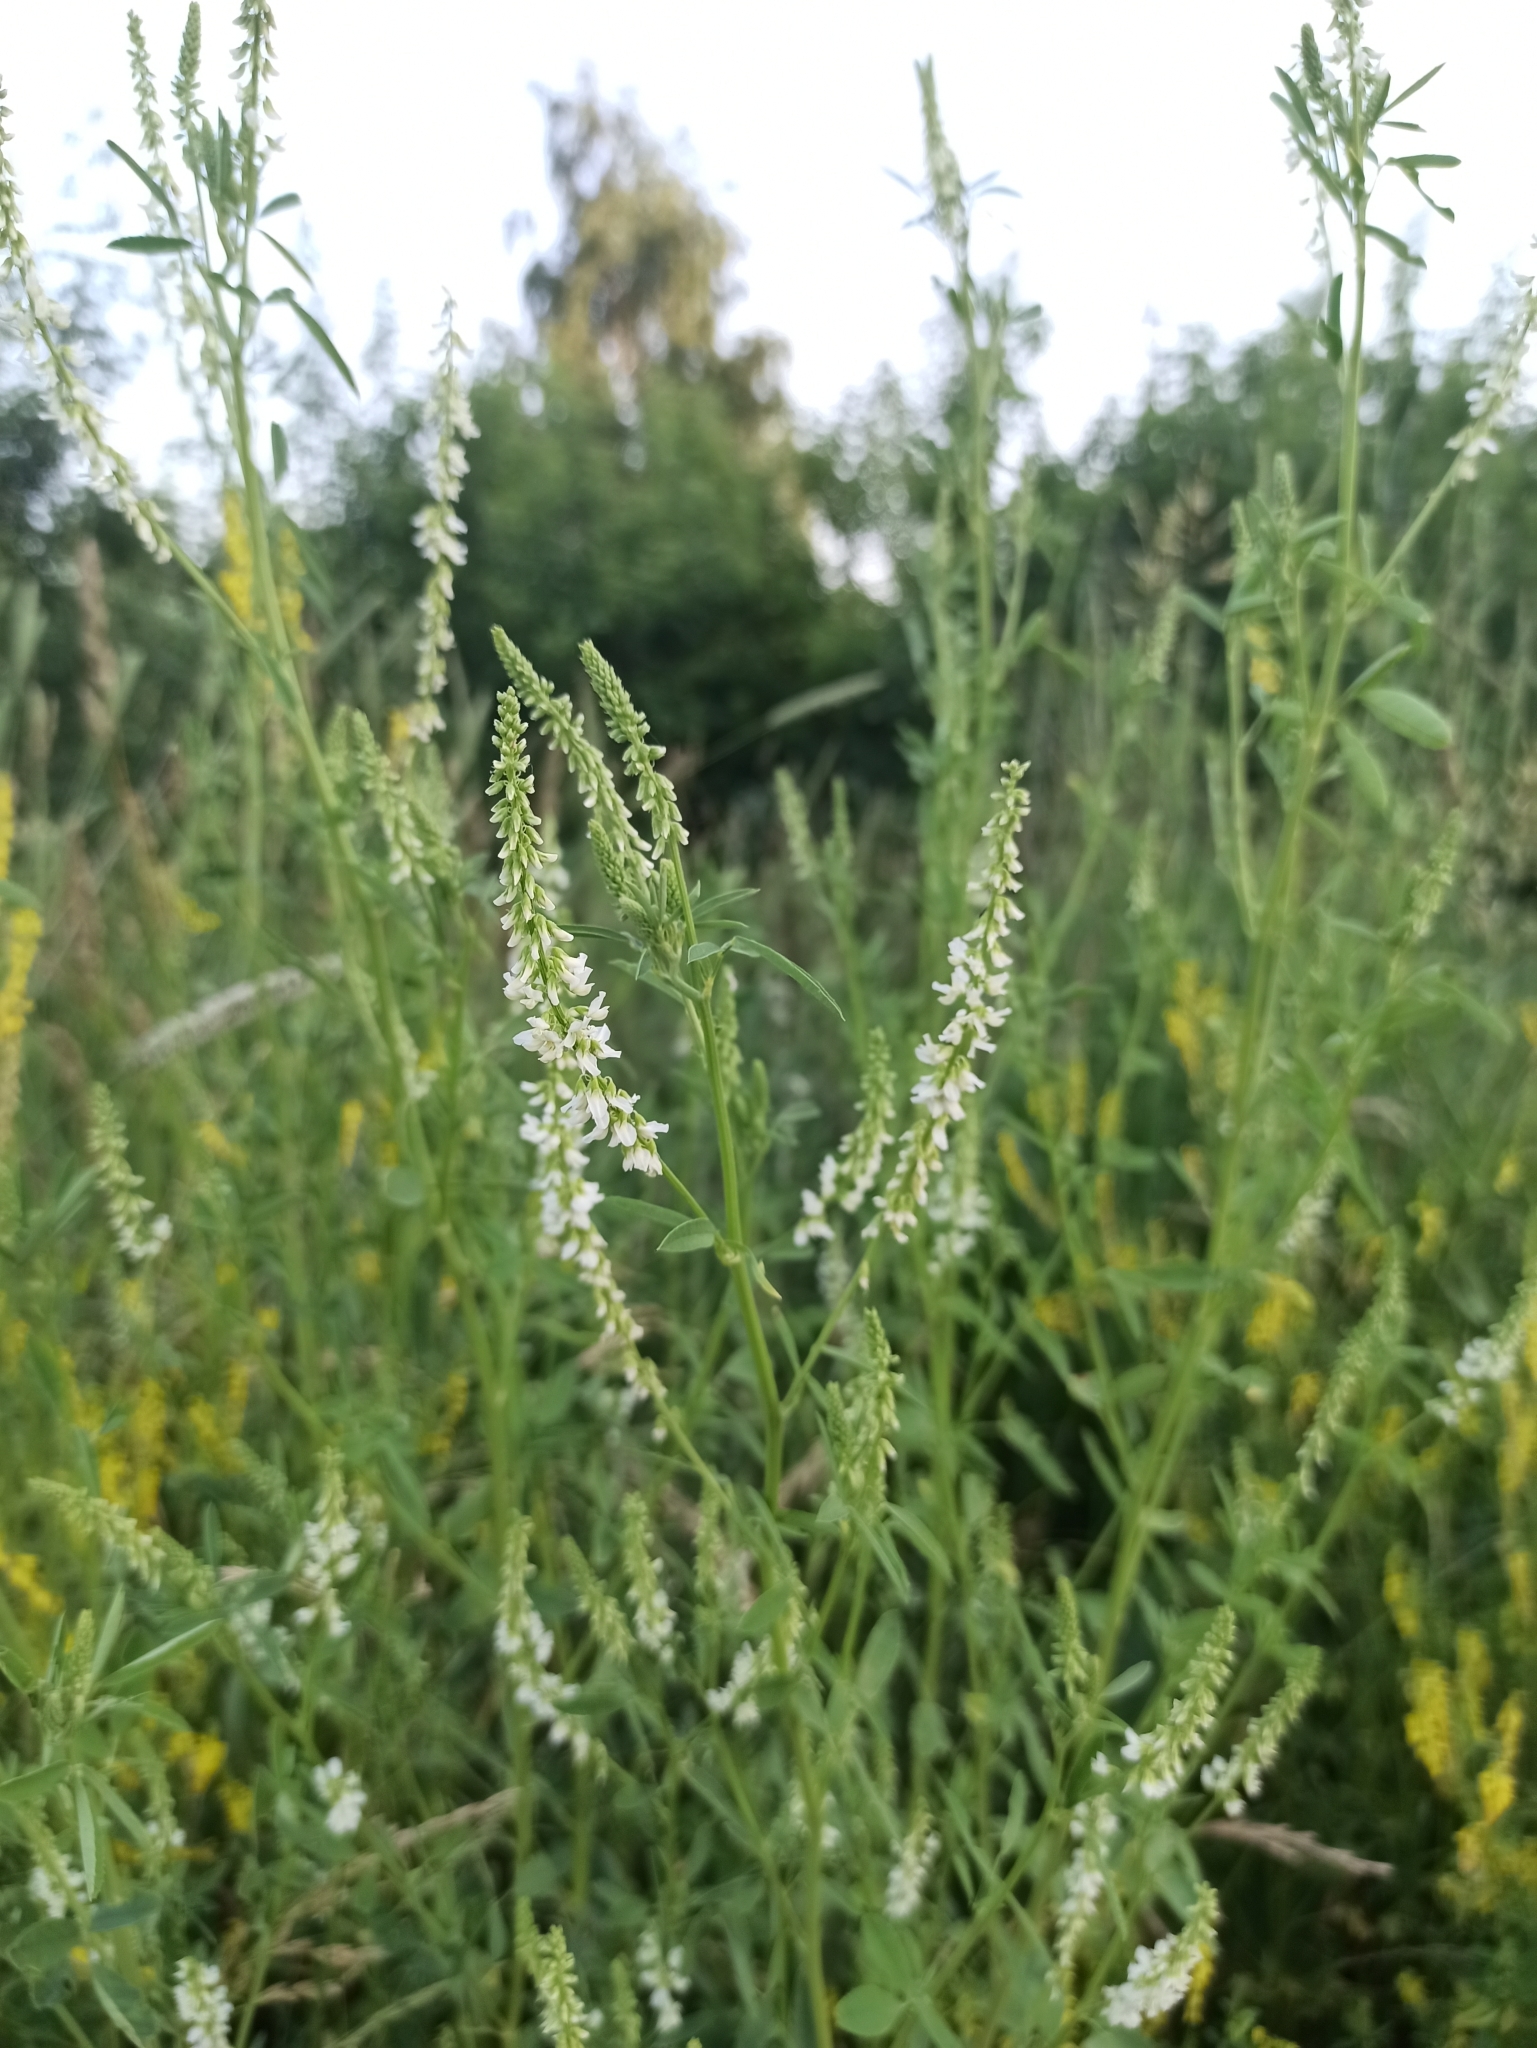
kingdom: Plantae
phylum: Tracheophyta
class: Magnoliopsida
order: Fabales
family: Fabaceae
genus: Melilotus
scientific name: Melilotus albus
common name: White melilot
